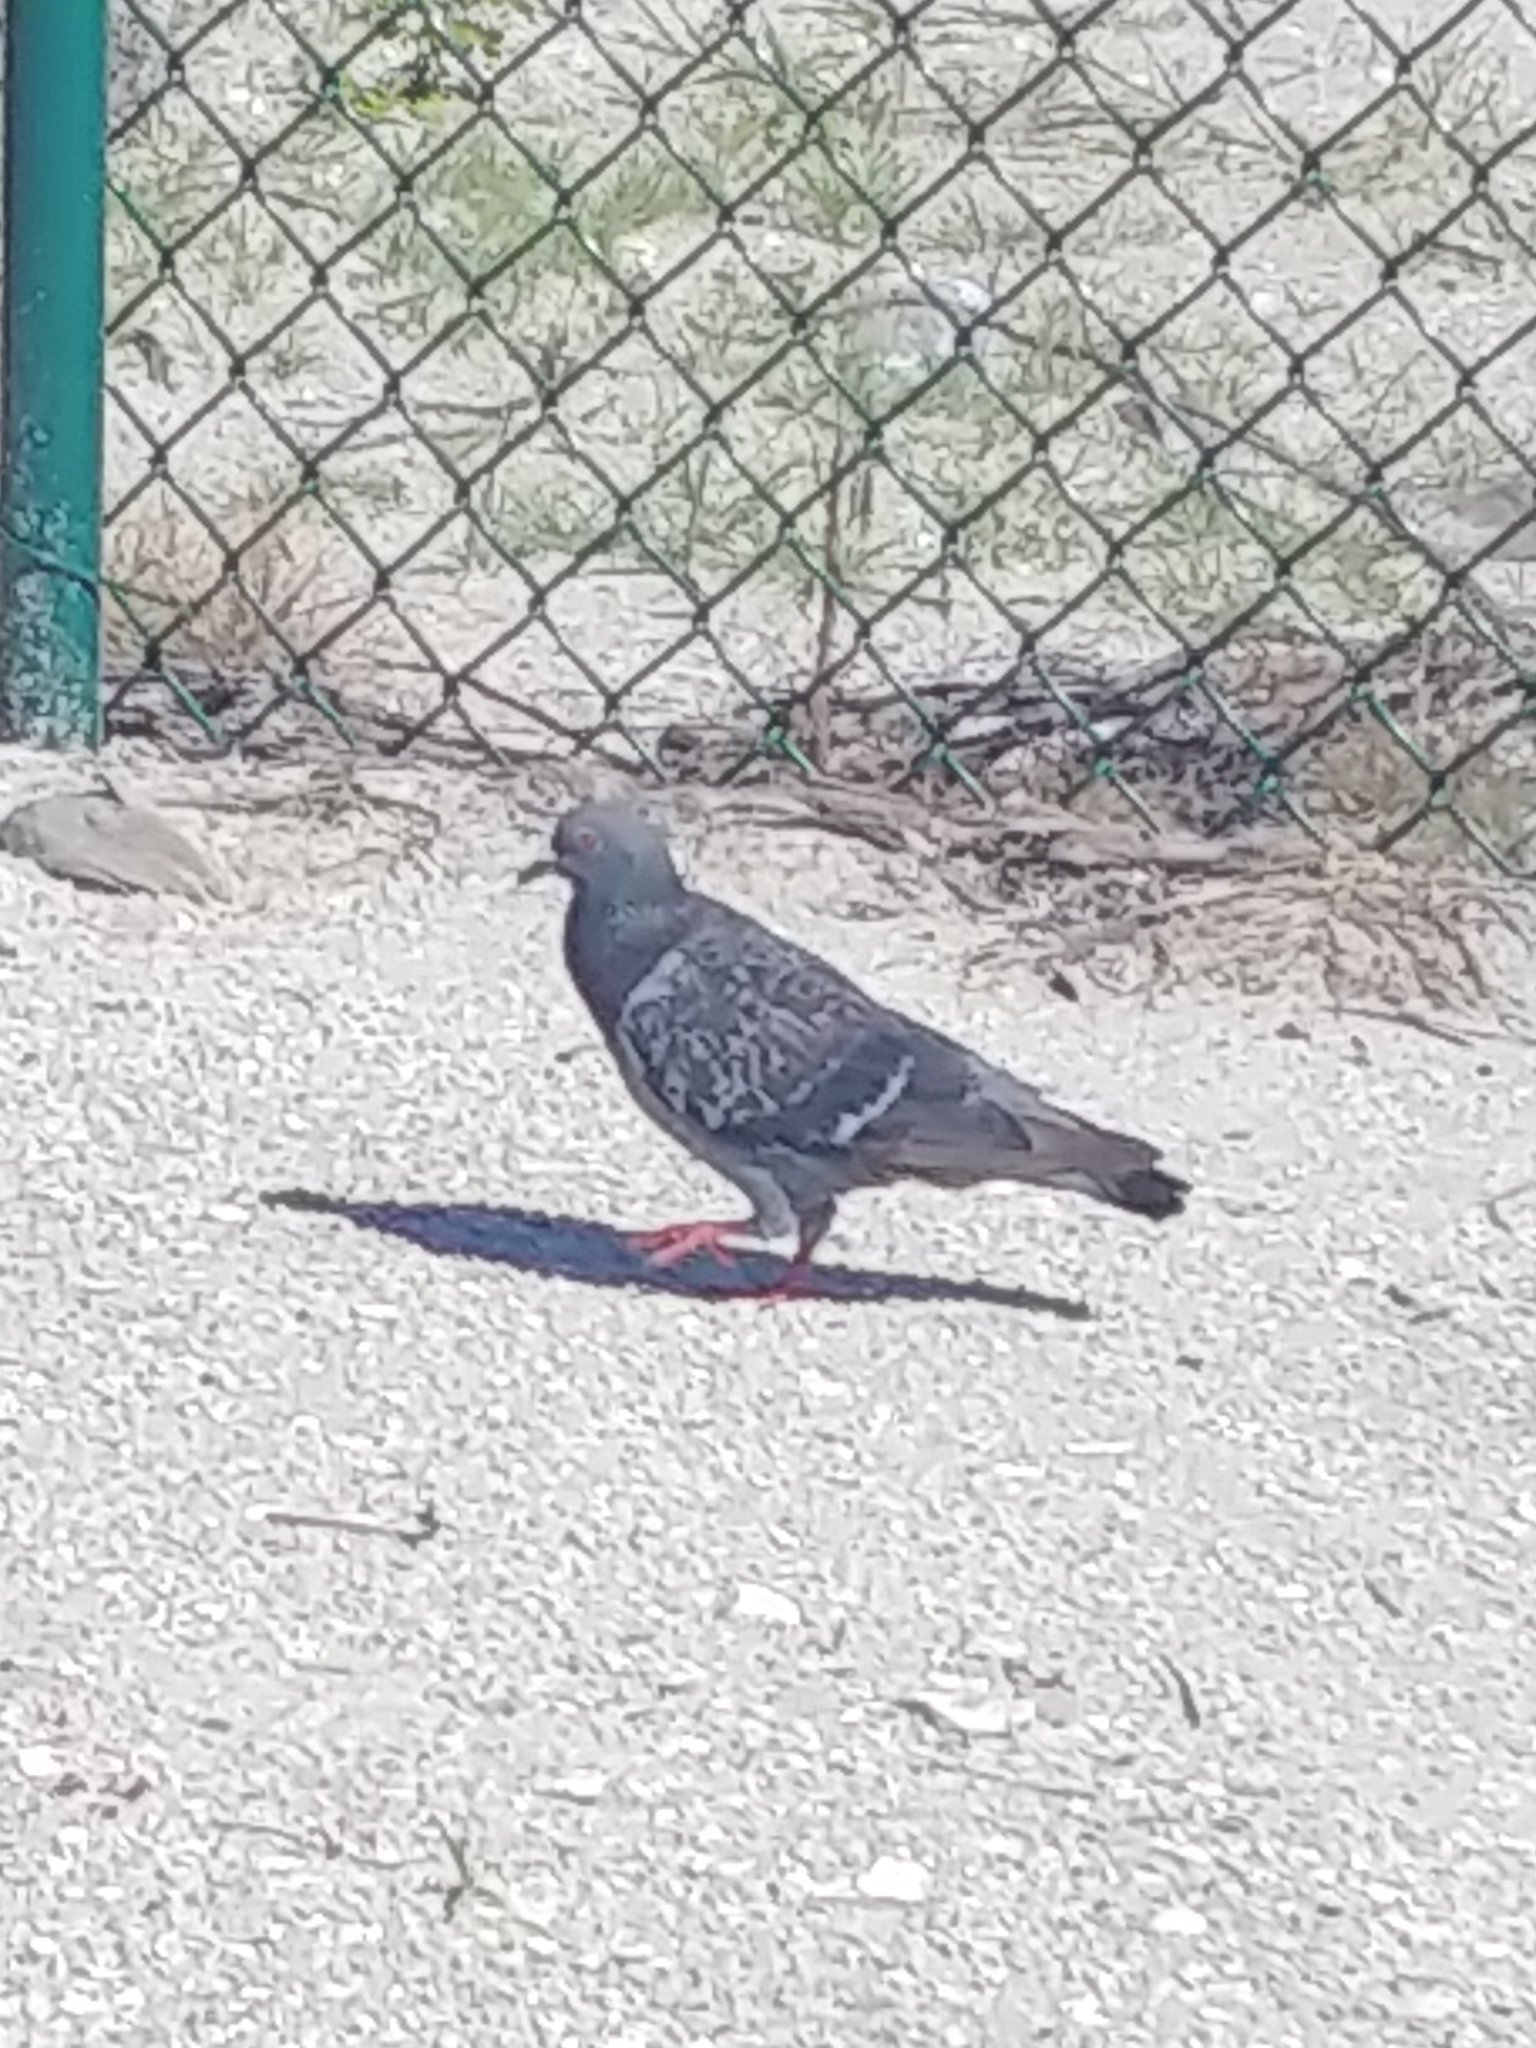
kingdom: Animalia
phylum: Chordata
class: Aves
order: Columbiformes
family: Columbidae
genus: Columba
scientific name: Columba livia
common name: Rock pigeon
